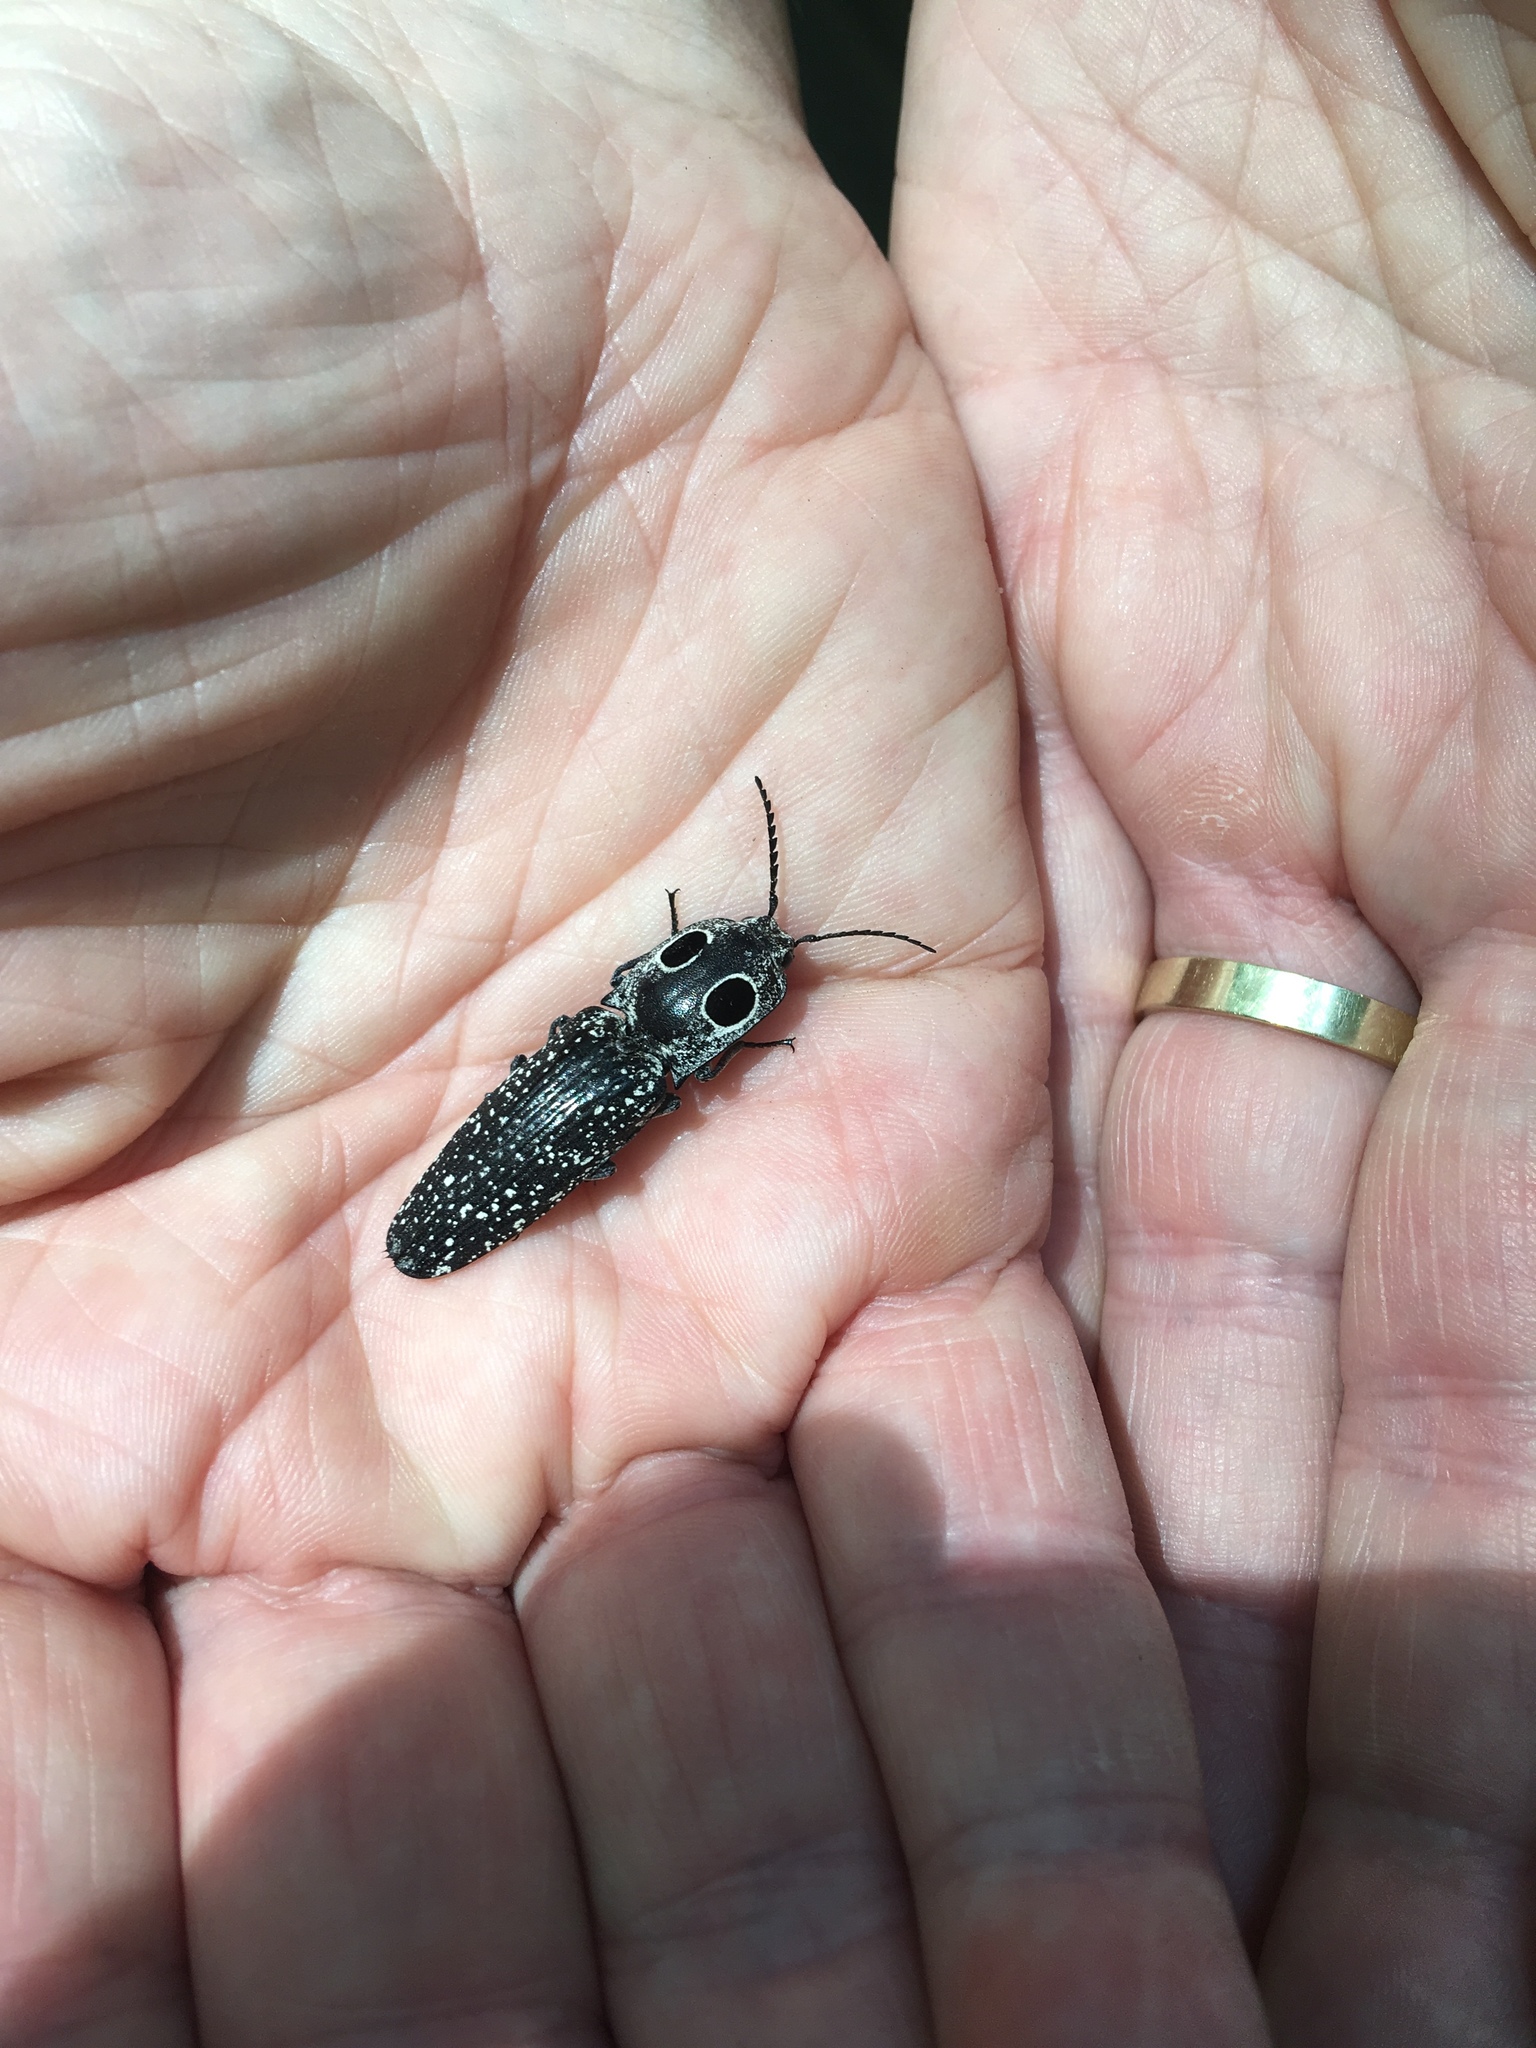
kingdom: Animalia
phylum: Arthropoda
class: Insecta
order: Coleoptera
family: Elateridae
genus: Alaus
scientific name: Alaus oculatus
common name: Eastern eyed click beetle
